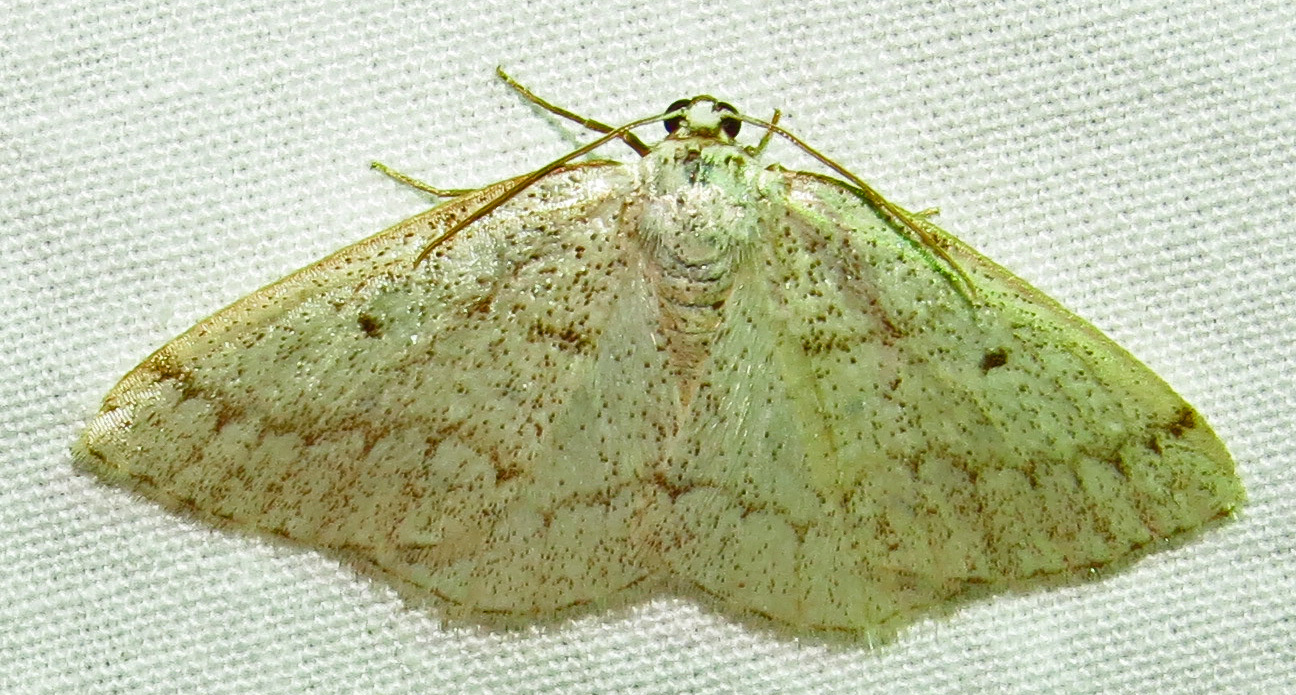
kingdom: Animalia
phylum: Arthropoda
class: Insecta
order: Lepidoptera
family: Geometridae
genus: Lomographa
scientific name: Lomographa glomeraria
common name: Gray spring moth
